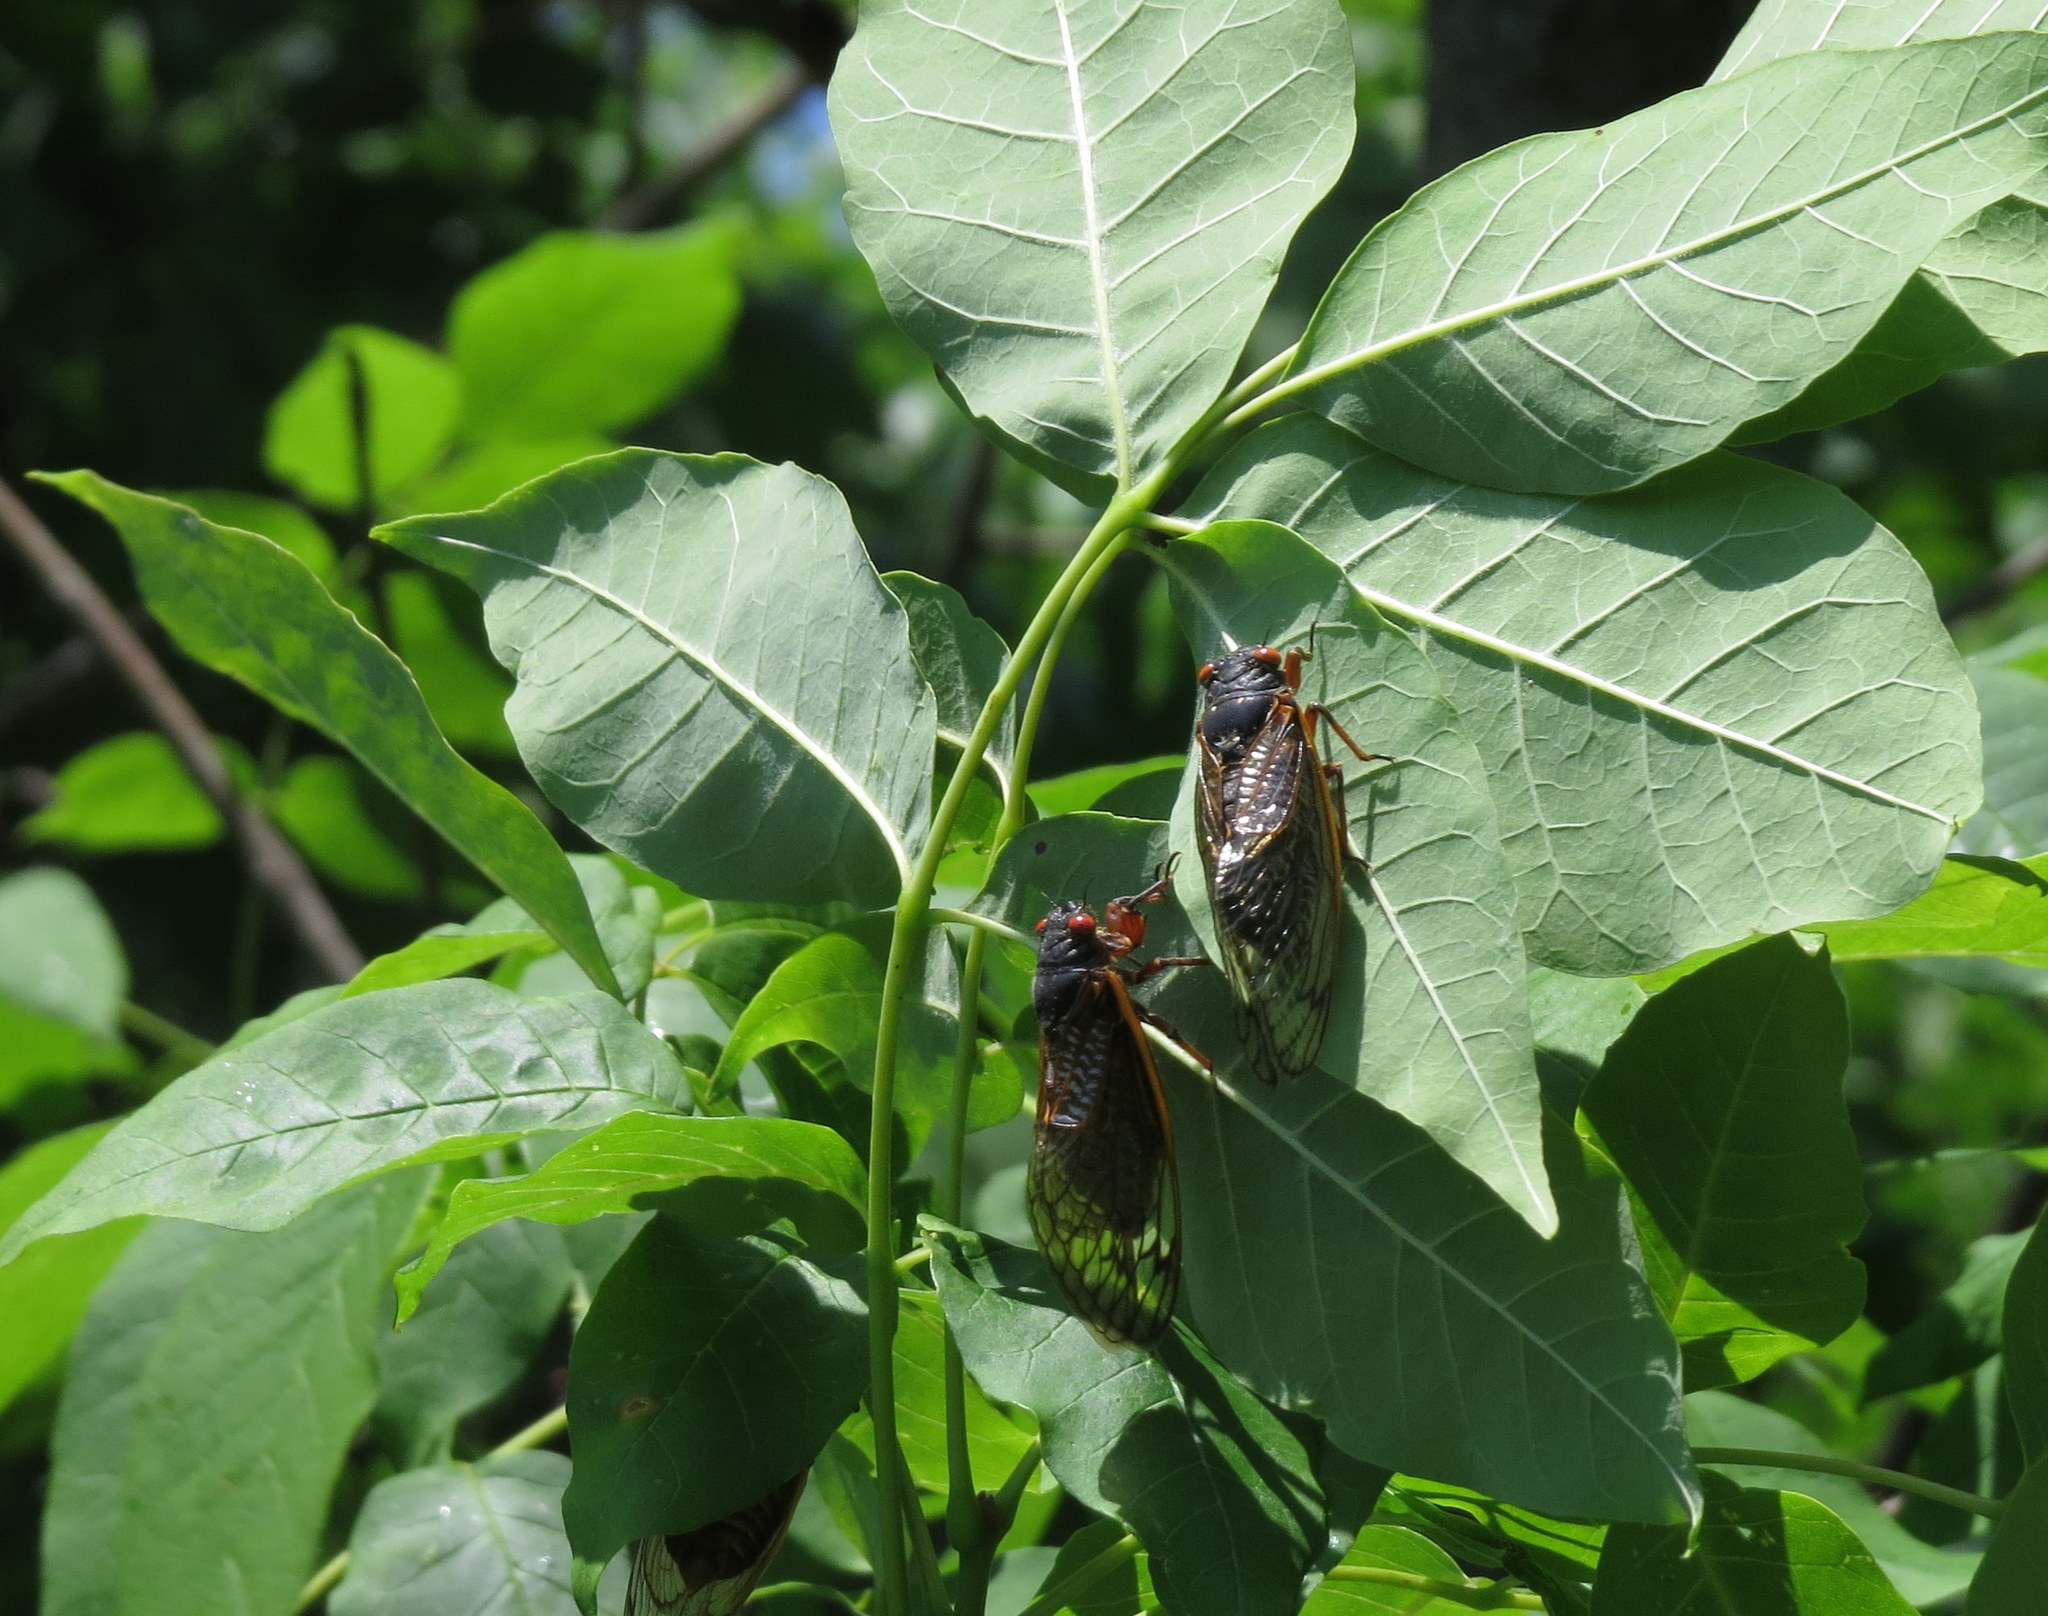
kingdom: Animalia
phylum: Arthropoda
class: Insecta
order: Hemiptera
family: Cicadidae
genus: Magicicada
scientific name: Magicicada septendecim
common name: Periodical cicada
